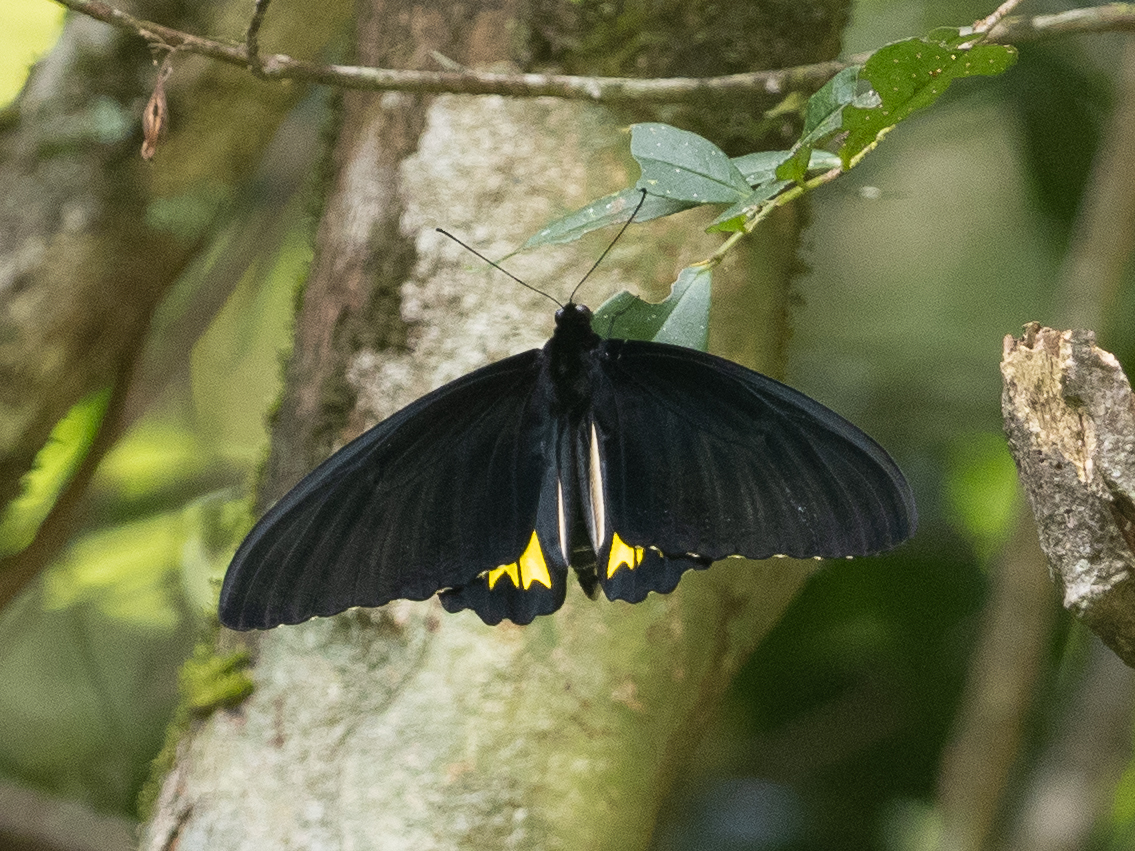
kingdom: Animalia
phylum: Arthropoda
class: Insecta
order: Lepidoptera
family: Papilionidae
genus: Troides
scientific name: Troides darsius
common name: Sri lankan birdwing
